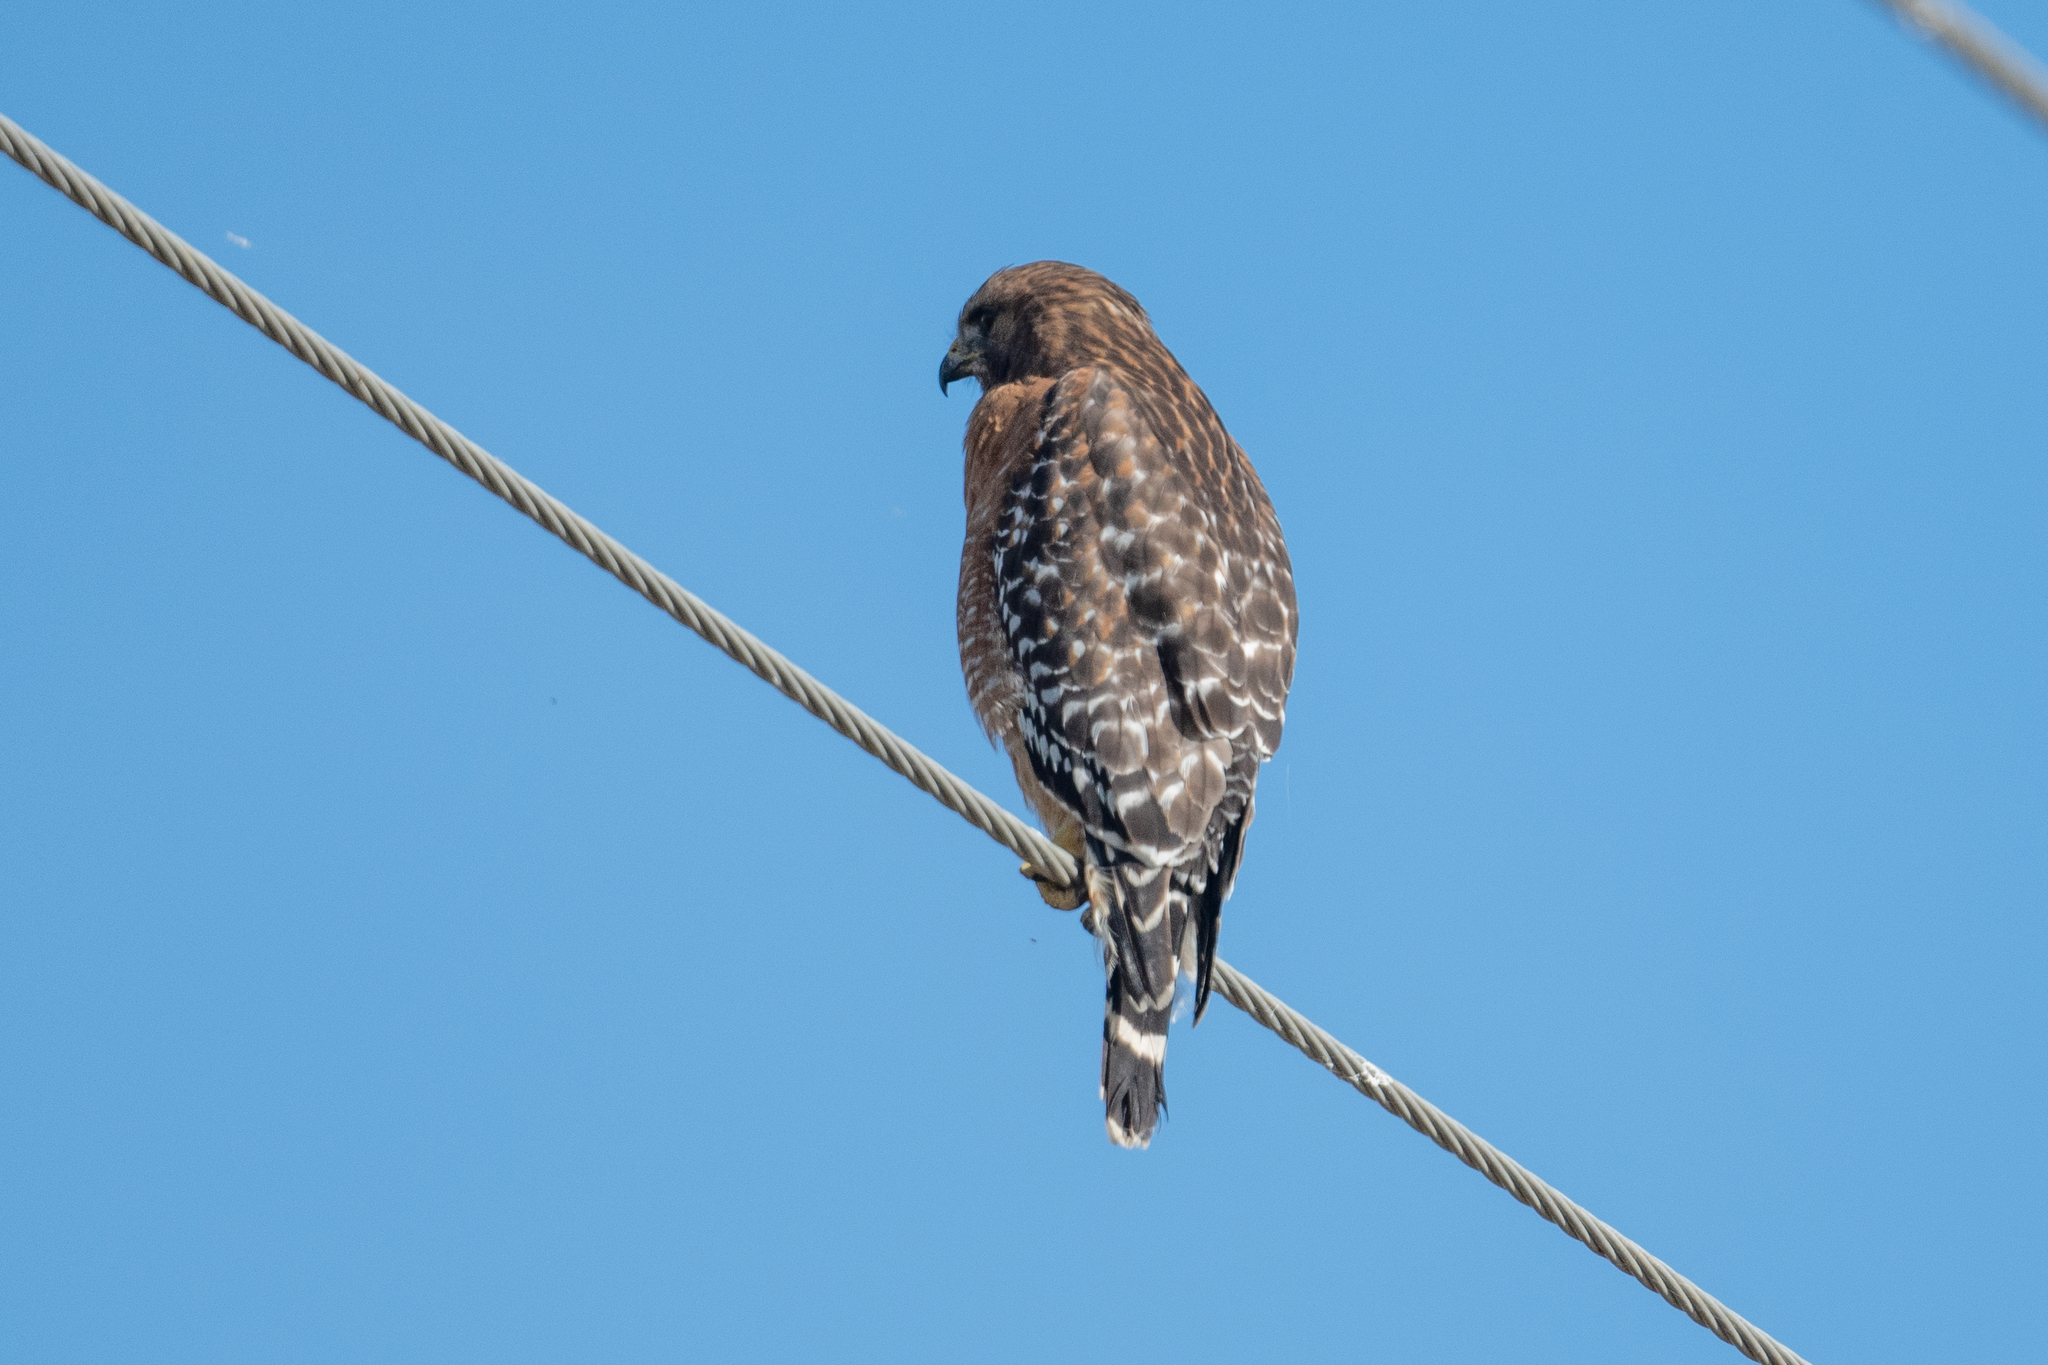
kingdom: Animalia
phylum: Chordata
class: Aves
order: Accipitriformes
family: Accipitridae
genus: Buteo
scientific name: Buteo lineatus
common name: Red-shouldered hawk
